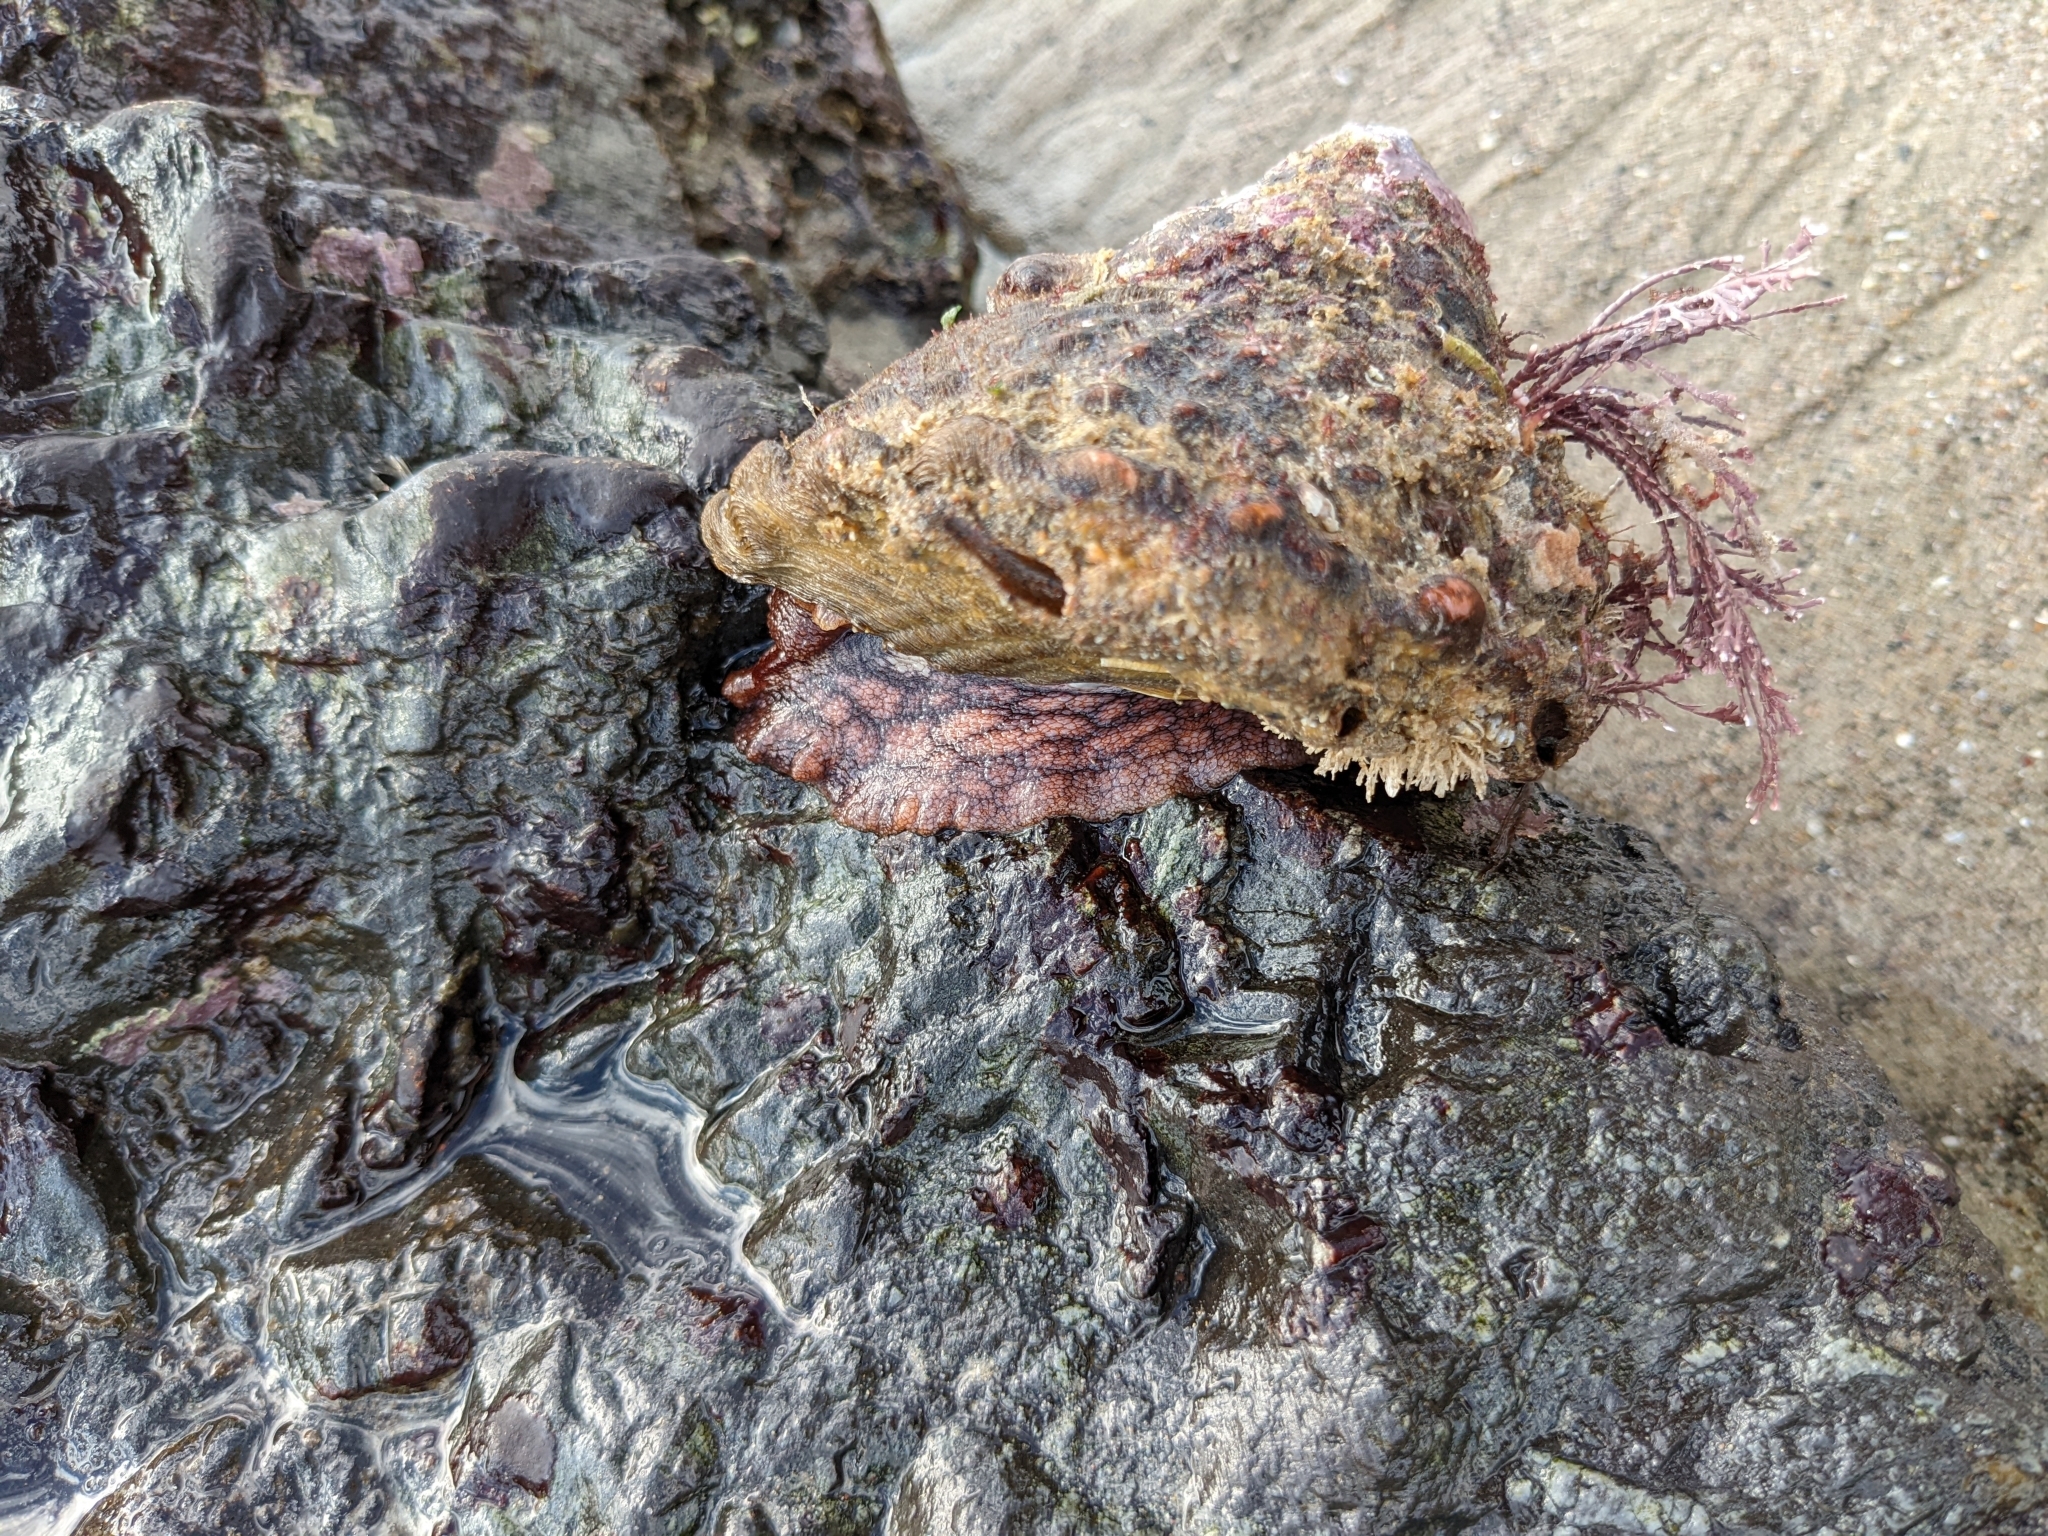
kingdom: Animalia
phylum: Mollusca
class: Gastropoda
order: Trochida
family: Turbinidae
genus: Megastraea
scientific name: Megastraea undosa
